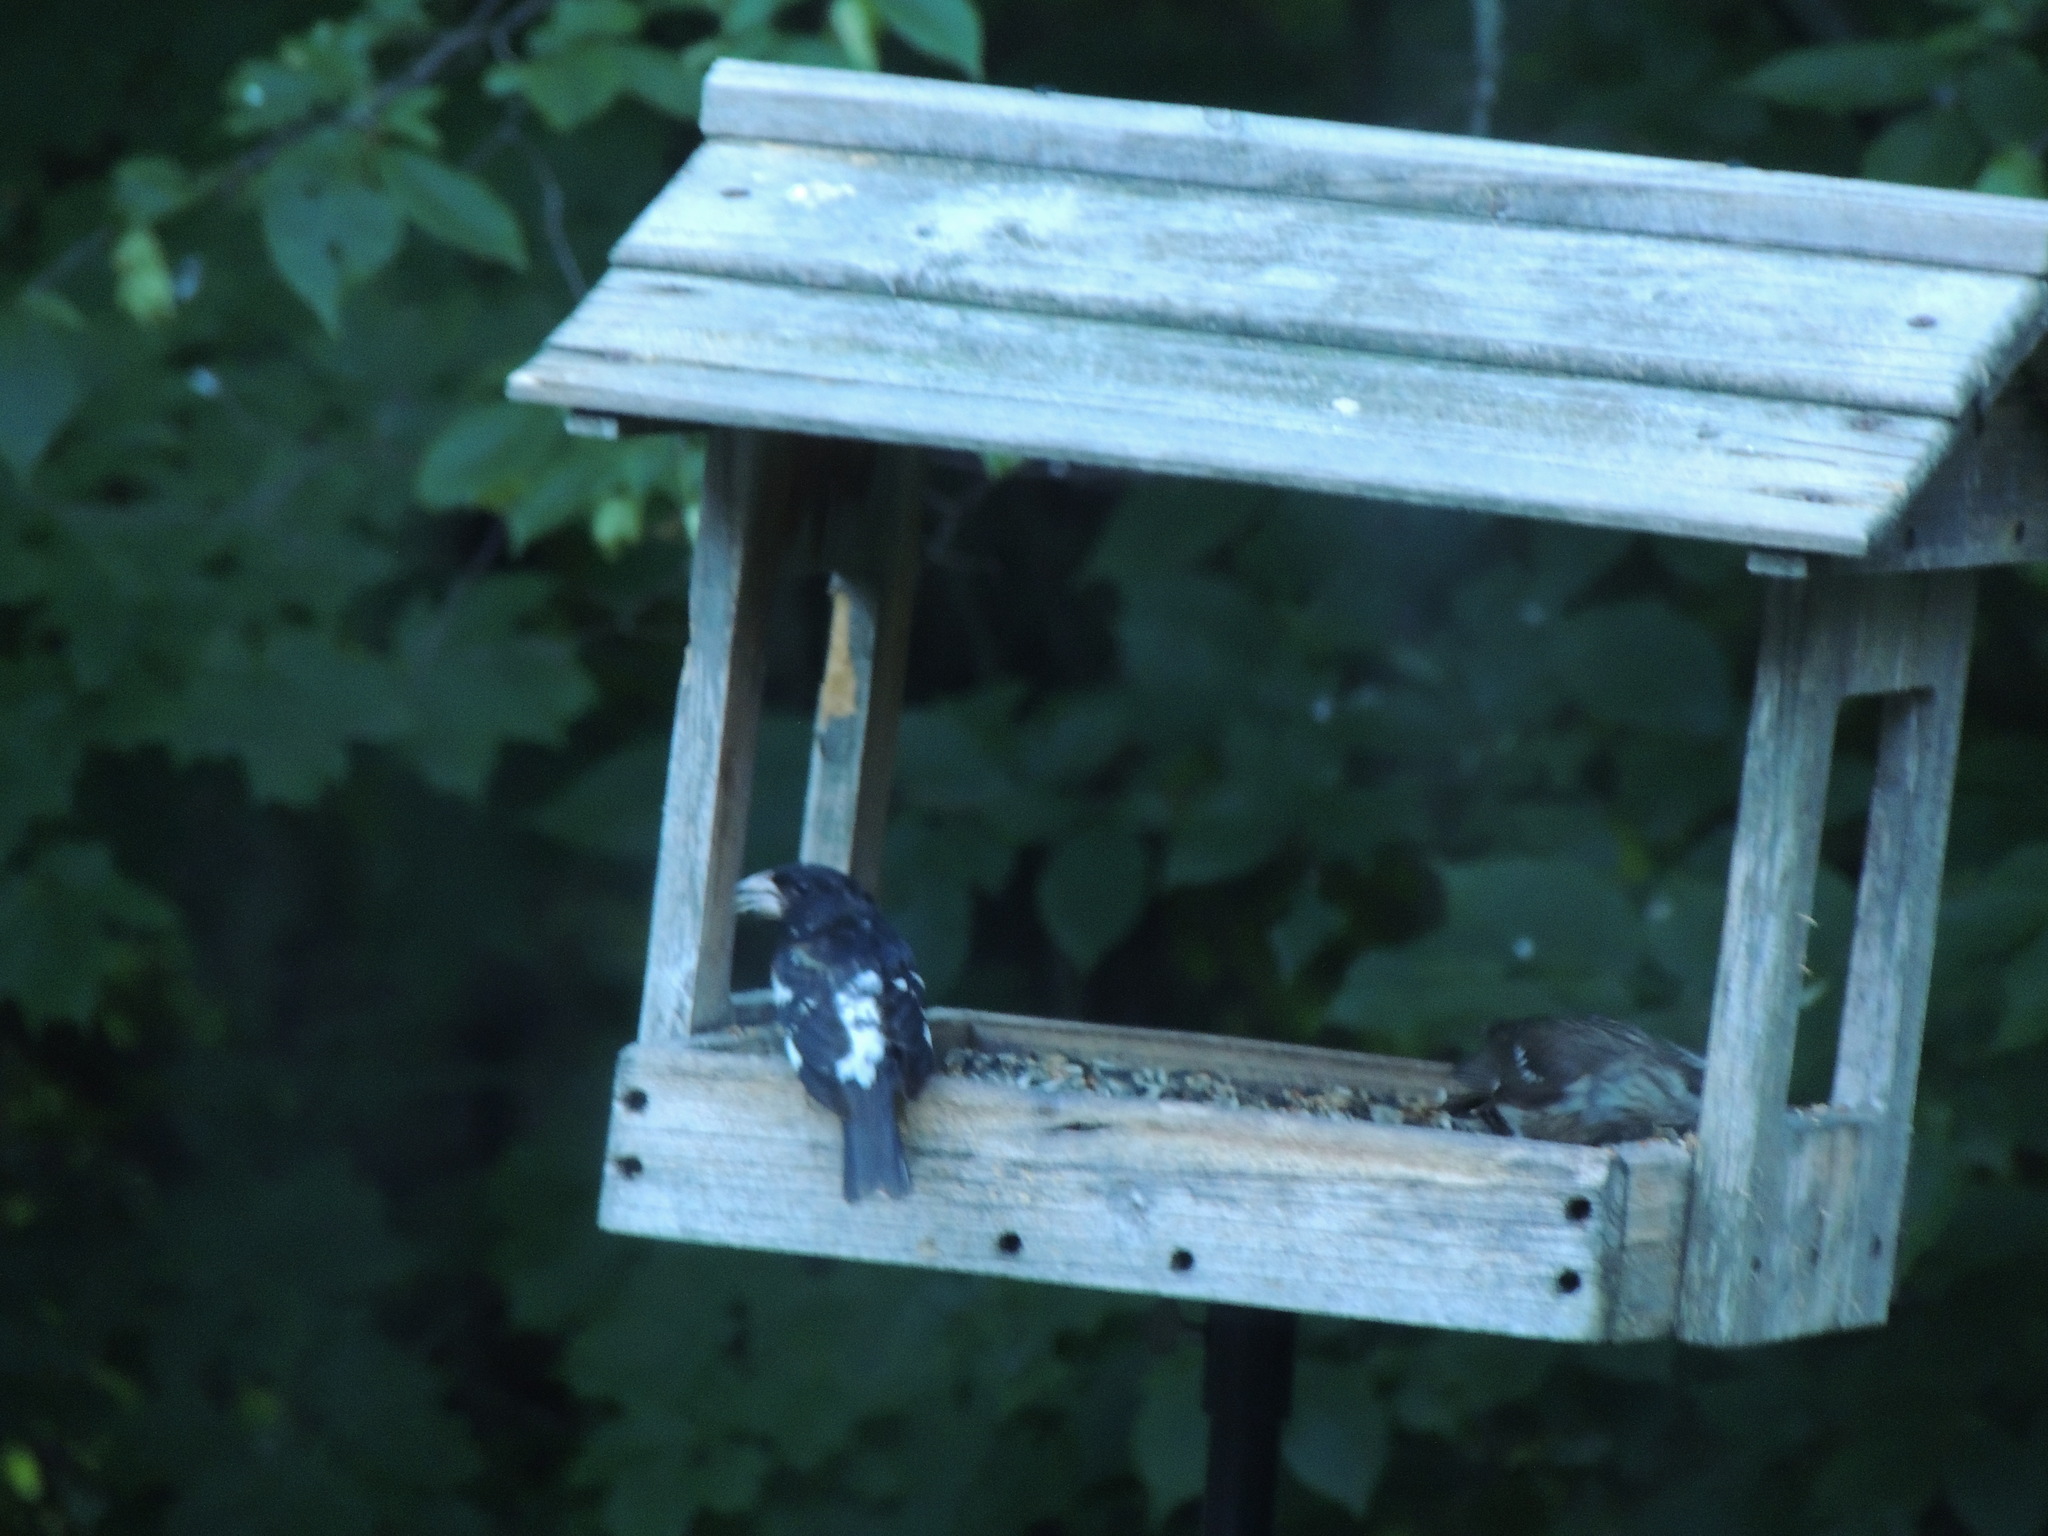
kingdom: Animalia
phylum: Chordata
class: Aves
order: Passeriformes
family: Cardinalidae
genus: Pheucticus
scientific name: Pheucticus ludovicianus
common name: Rose-breasted grosbeak
